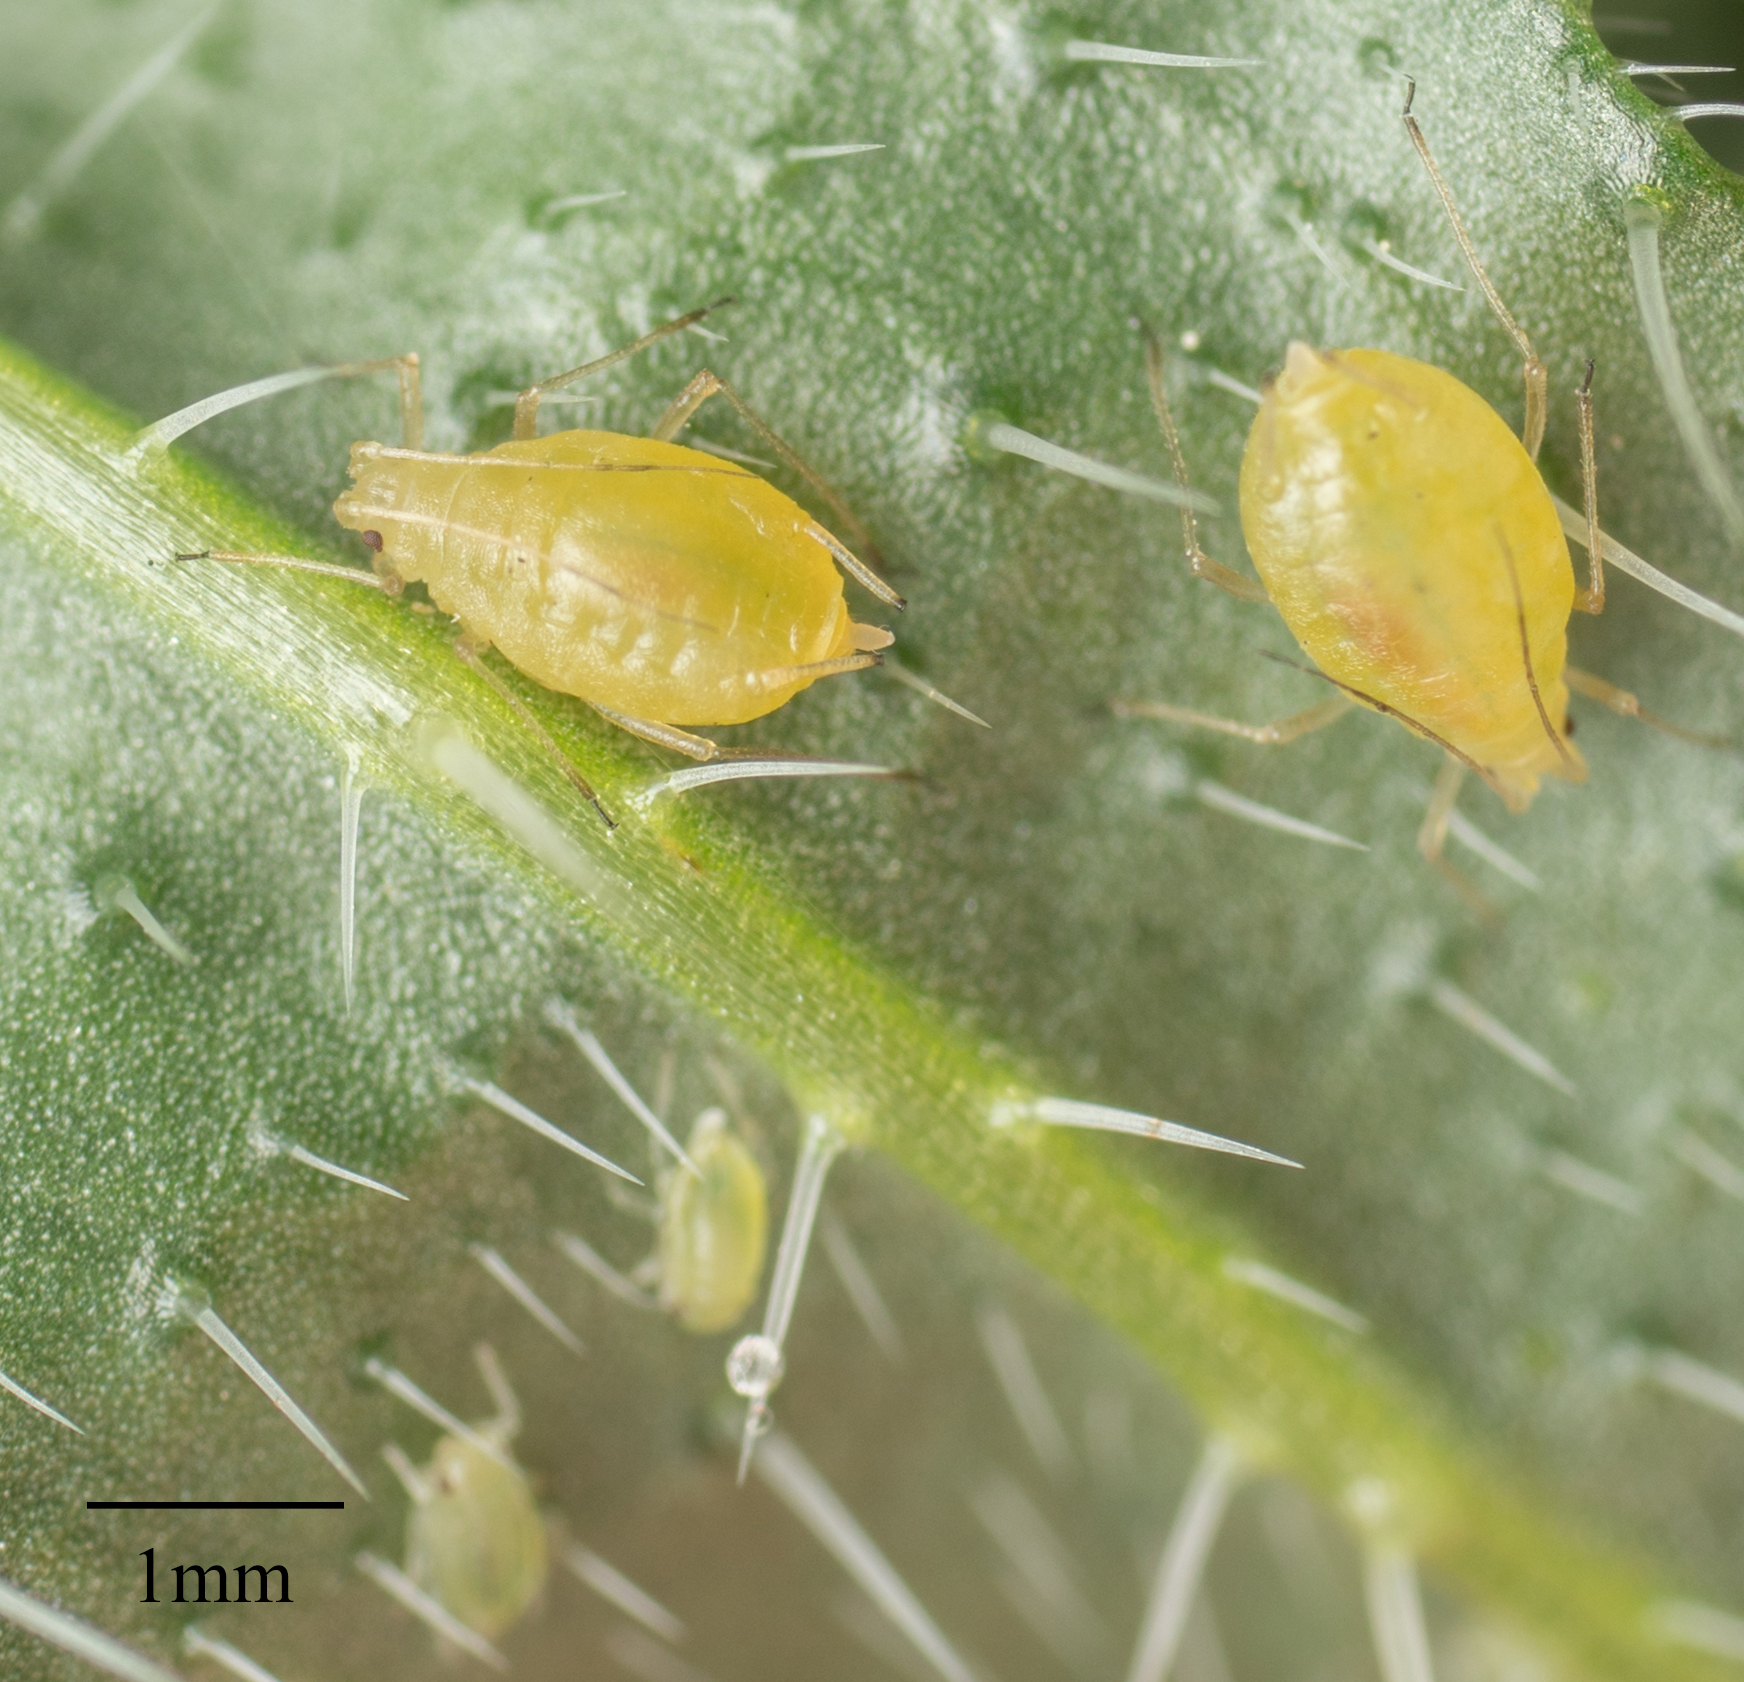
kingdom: Animalia
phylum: Arthropoda
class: Insecta
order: Hemiptera
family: Aphididae
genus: Myzus
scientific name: Myzus persicae
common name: Green peach aphid
